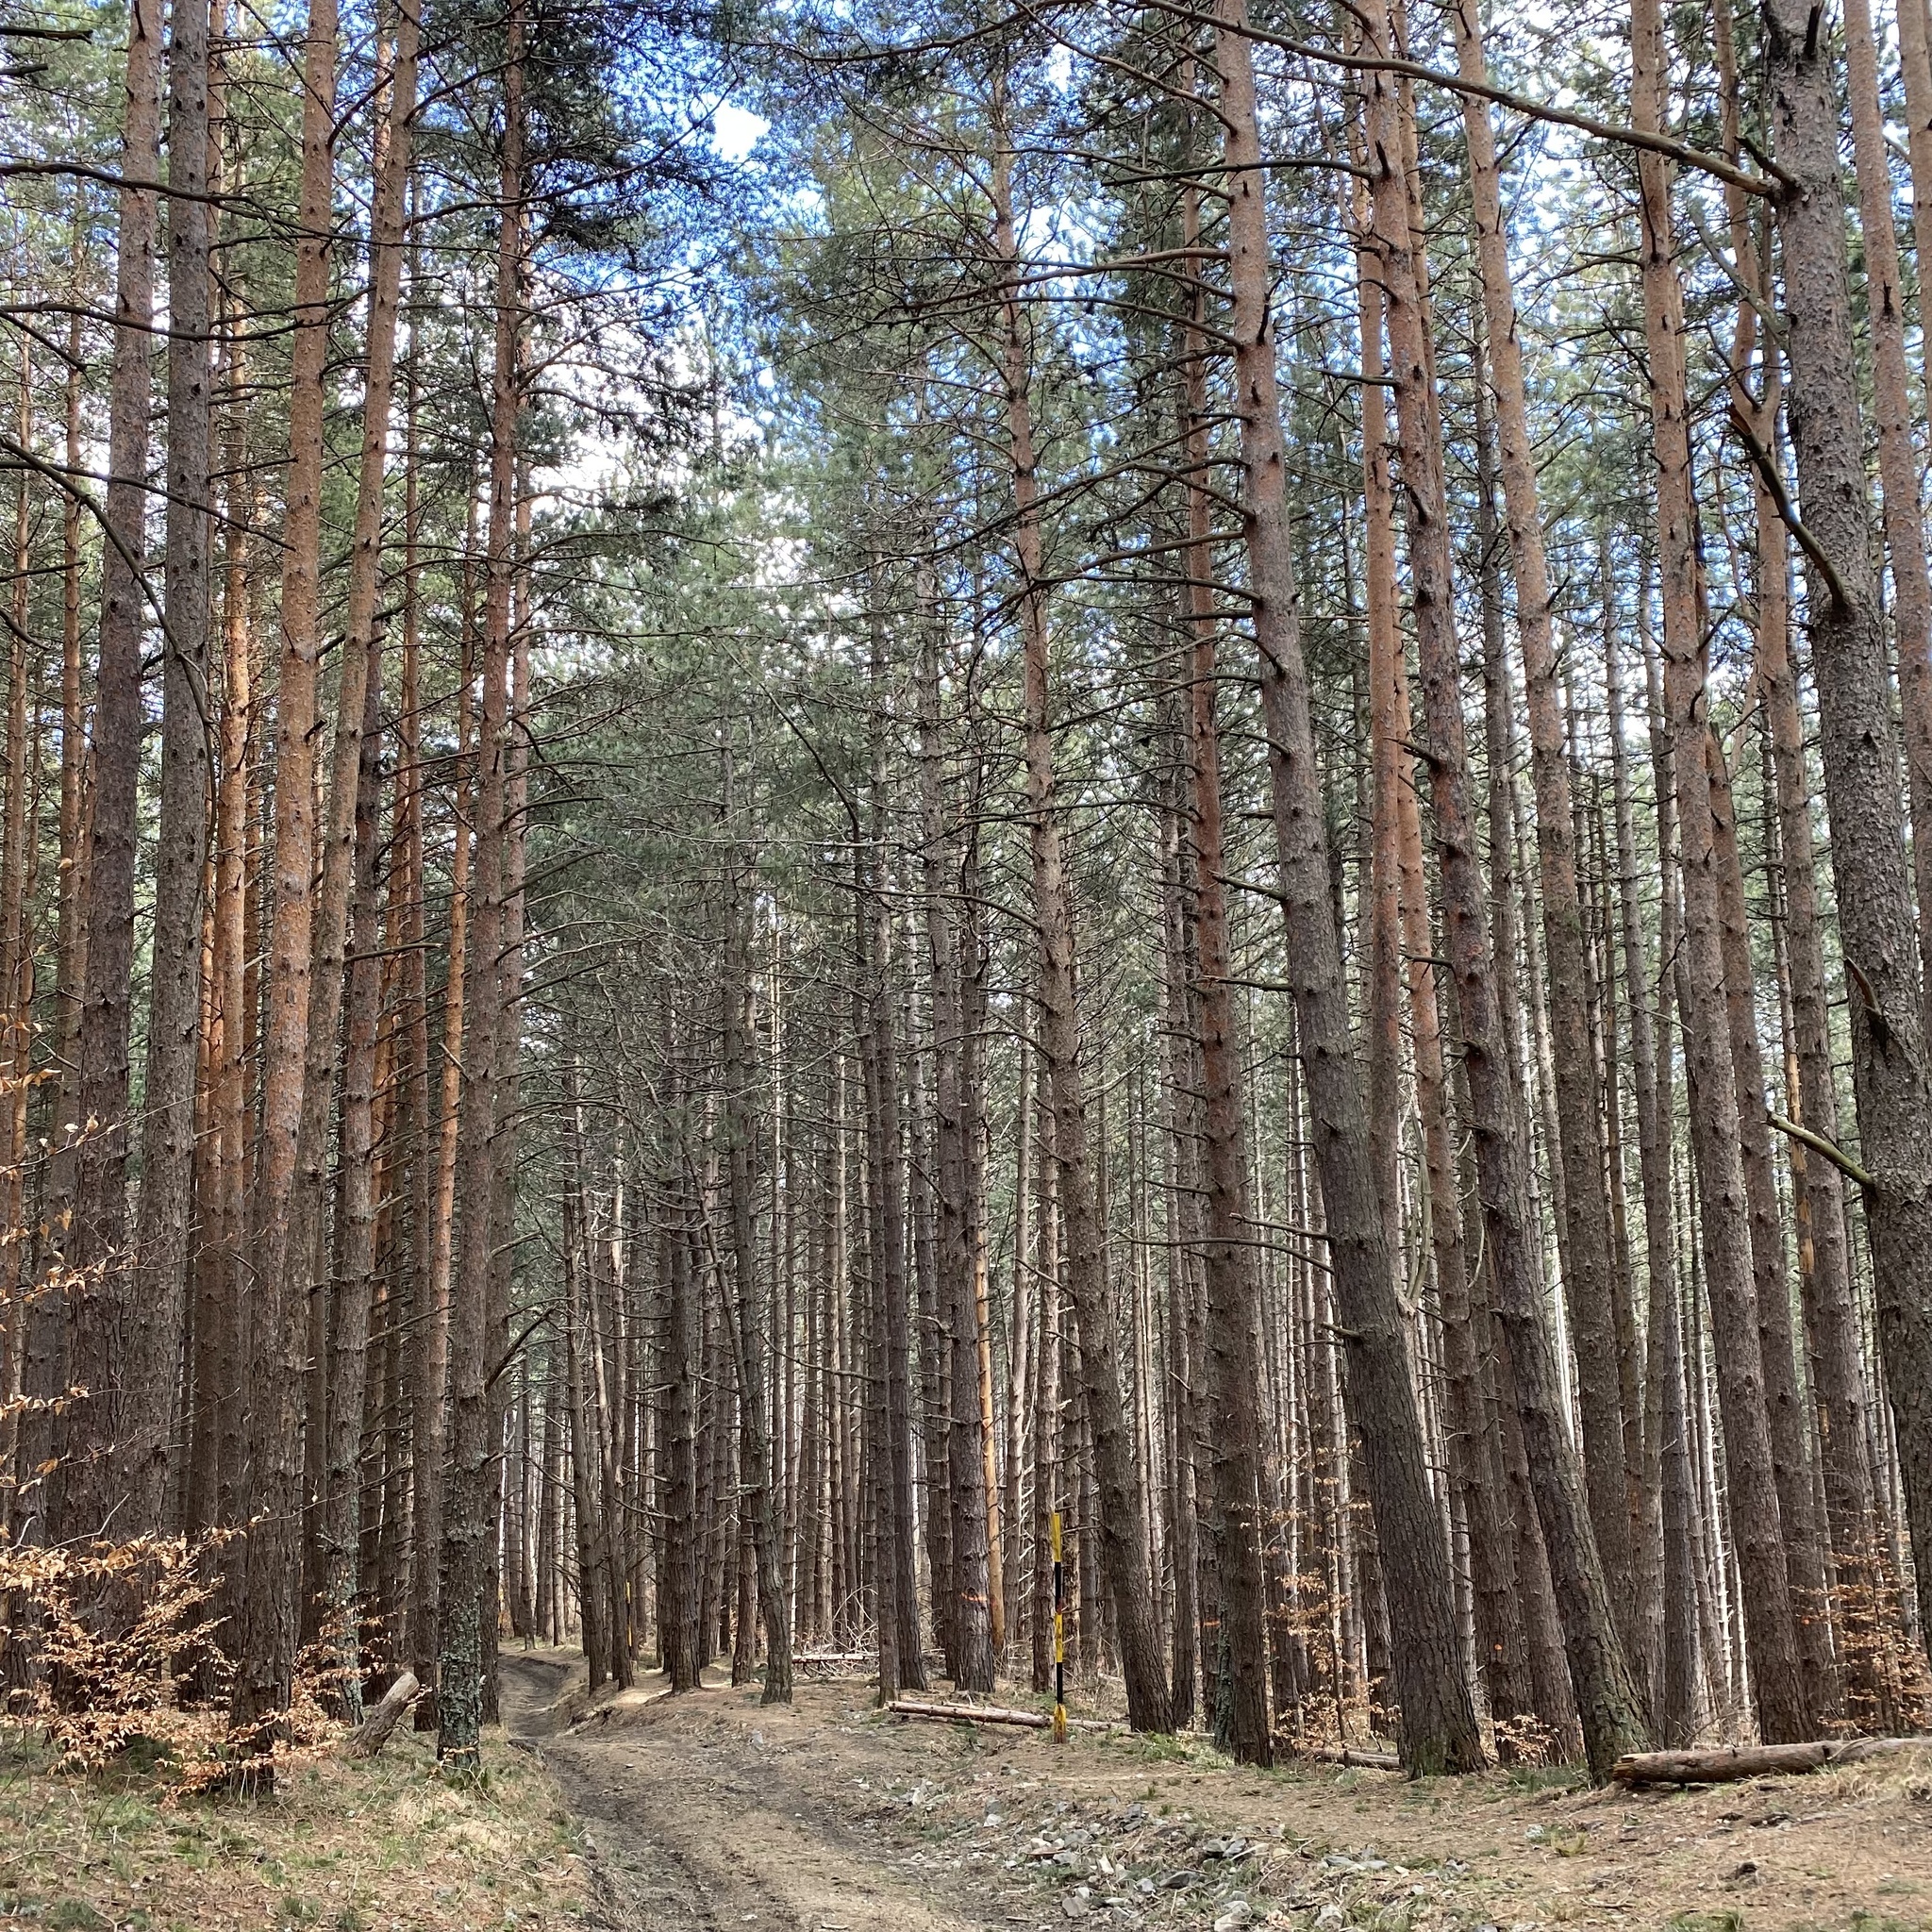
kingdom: Plantae
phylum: Tracheophyta
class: Pinopsida
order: Pinales
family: Pinaceae
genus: Pinus
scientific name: Pinus sylvestris
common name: Scots pine
